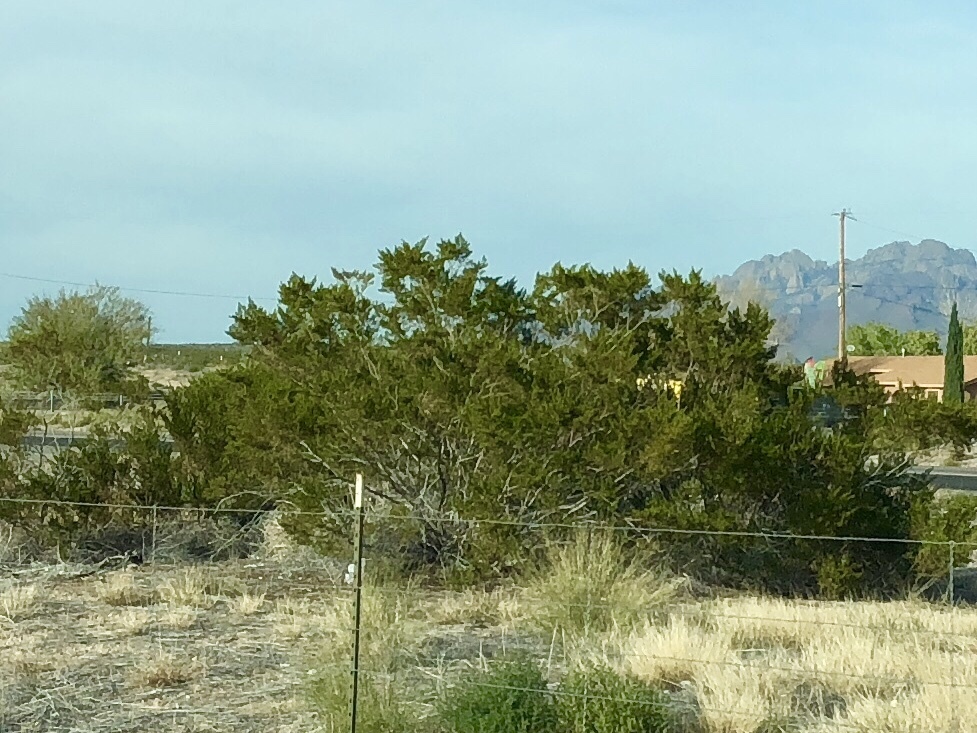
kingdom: Plantae
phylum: Tracheophyta
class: Magnoliopsida
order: Zygophyllales
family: Zygophyllaceae
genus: Larrea
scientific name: Larrea tridentata
